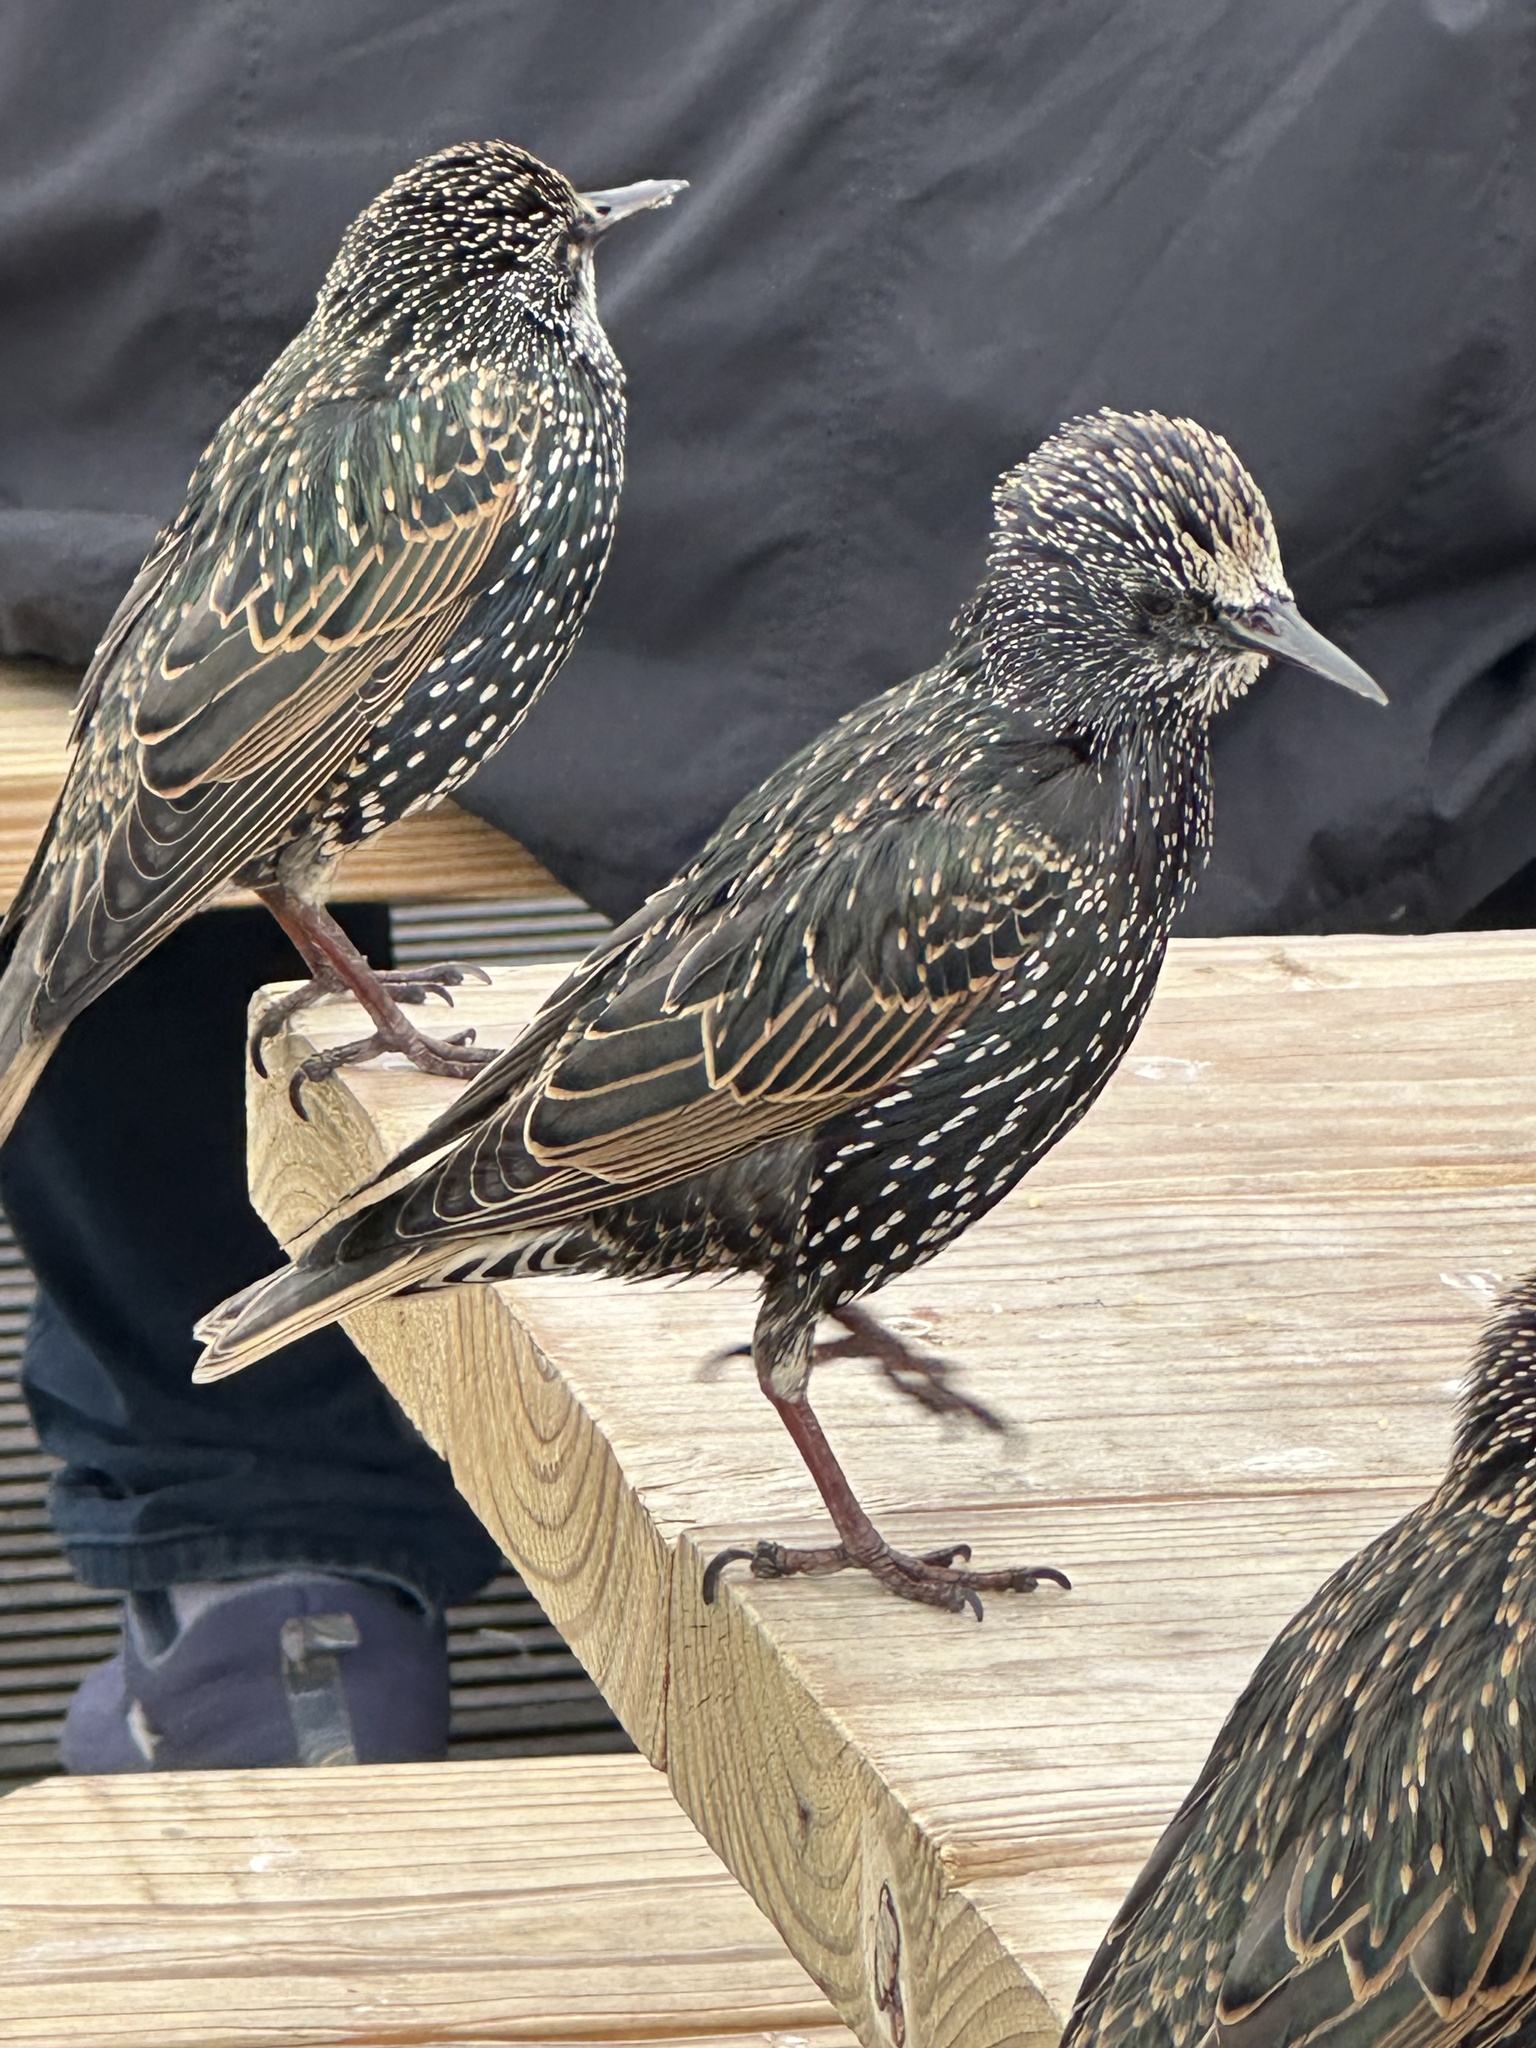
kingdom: Animalia
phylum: Chordata
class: Aves
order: Passeriformes
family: Sturnidae
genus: Sturnus
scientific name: Sturnus vulgaris
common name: Common starling
